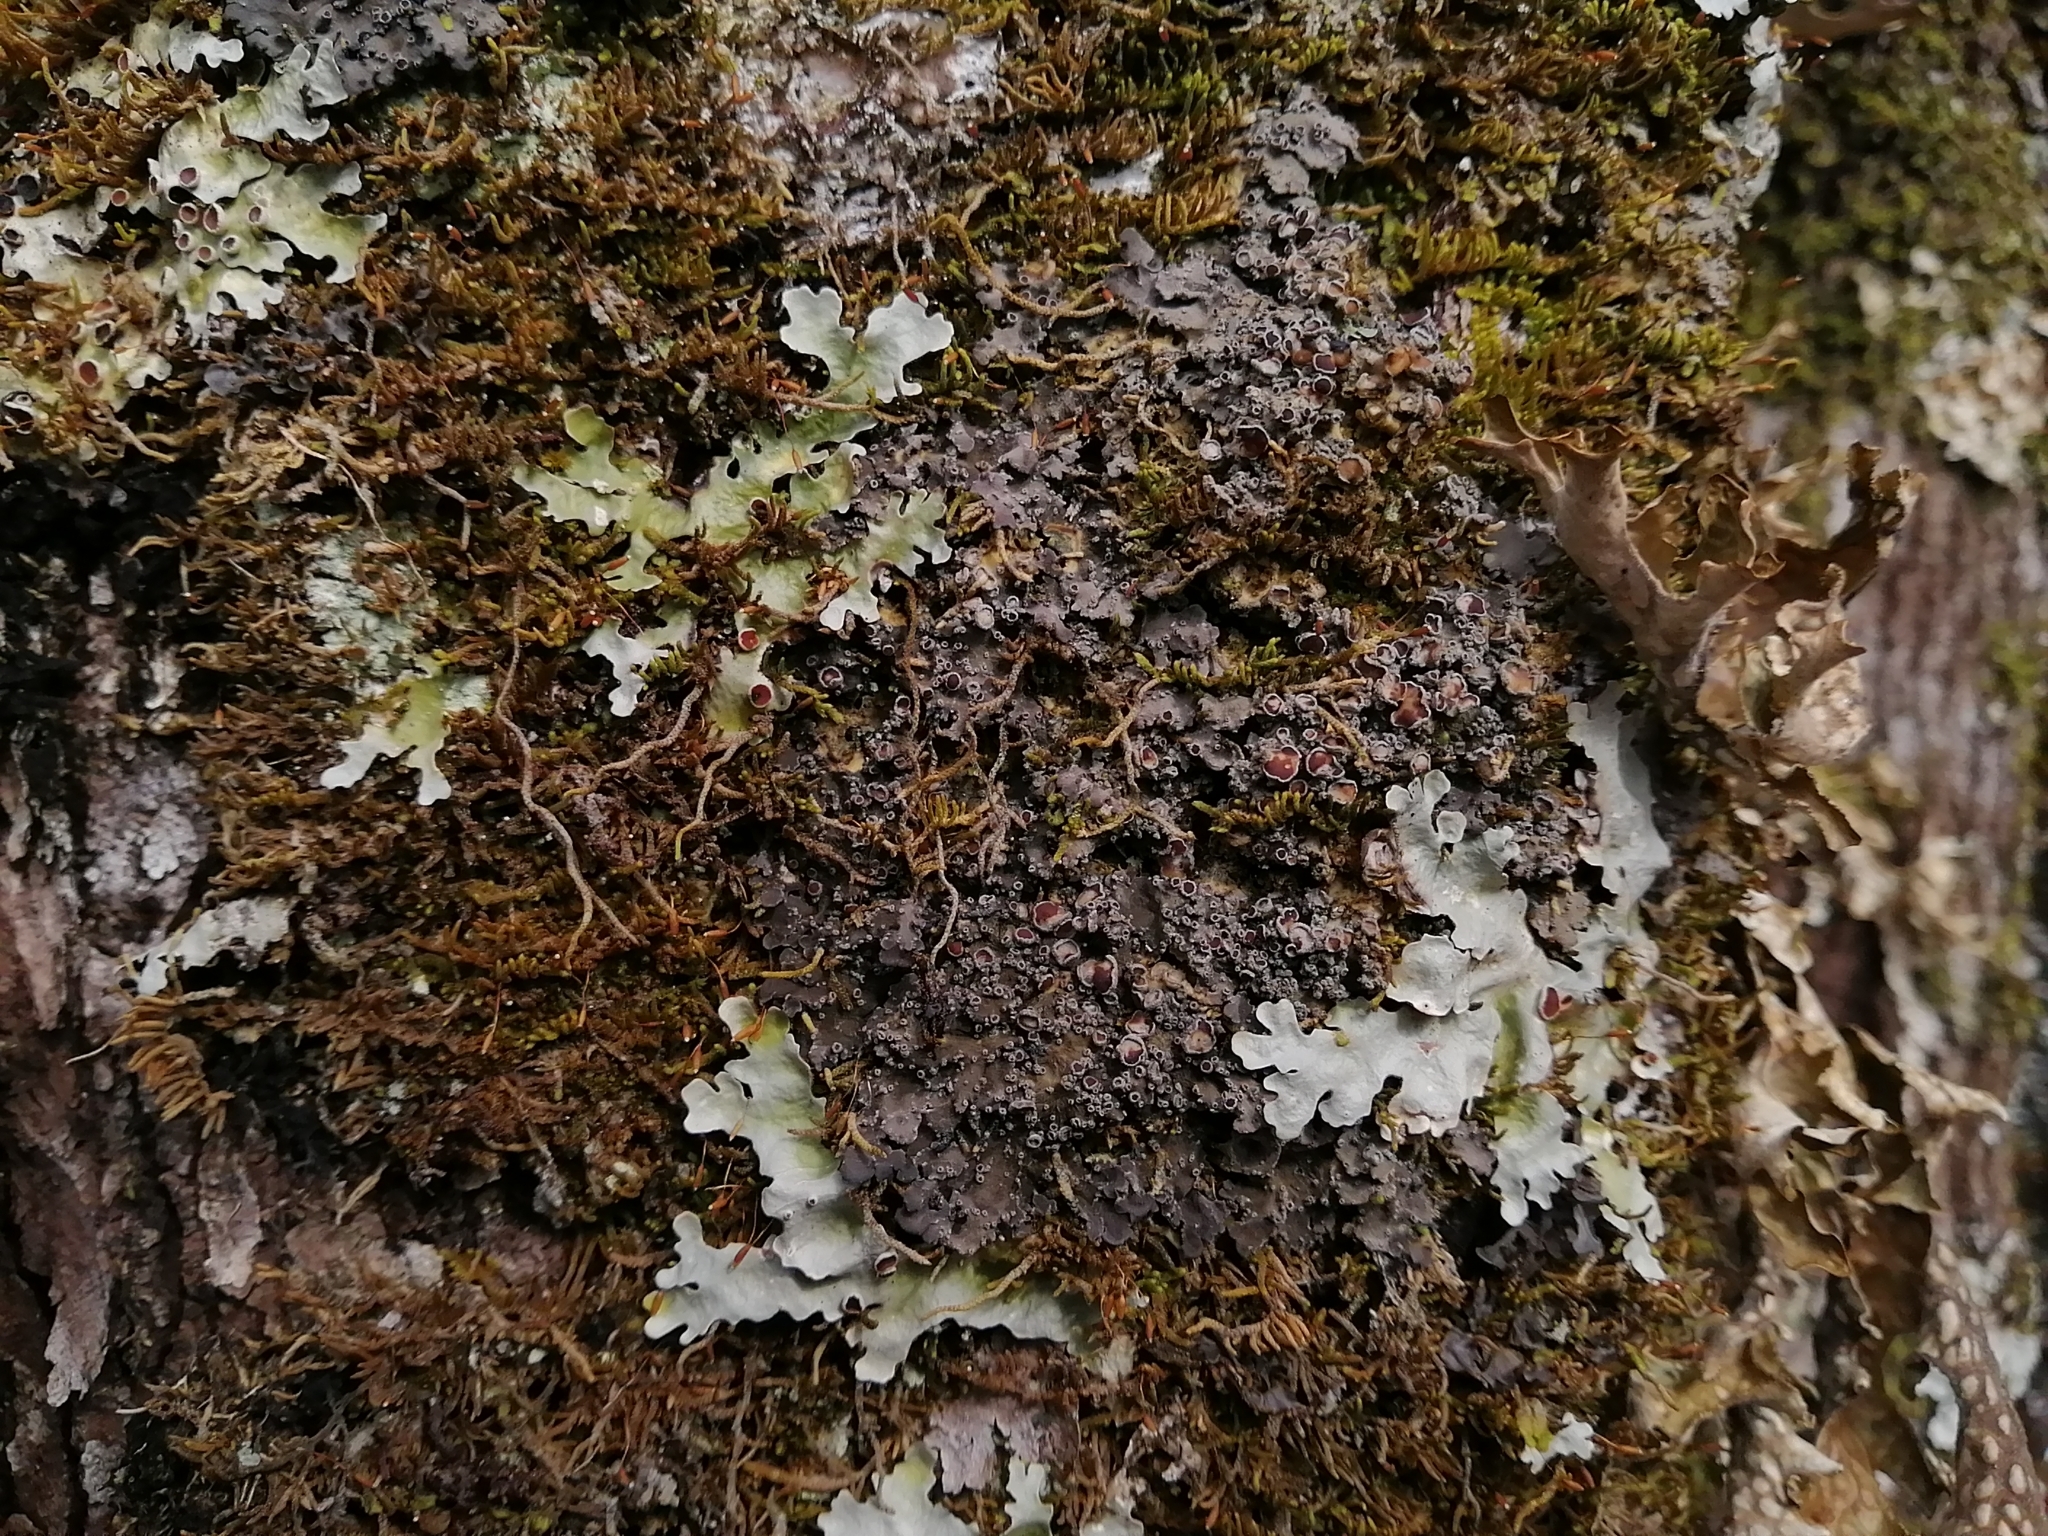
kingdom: Fungi
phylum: Ascomycota
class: Lecanoromycetes
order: Peltigerales
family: Pannariaceae
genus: Pannaria
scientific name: Pannaria lurida
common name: Wrinkled shingle lichen
